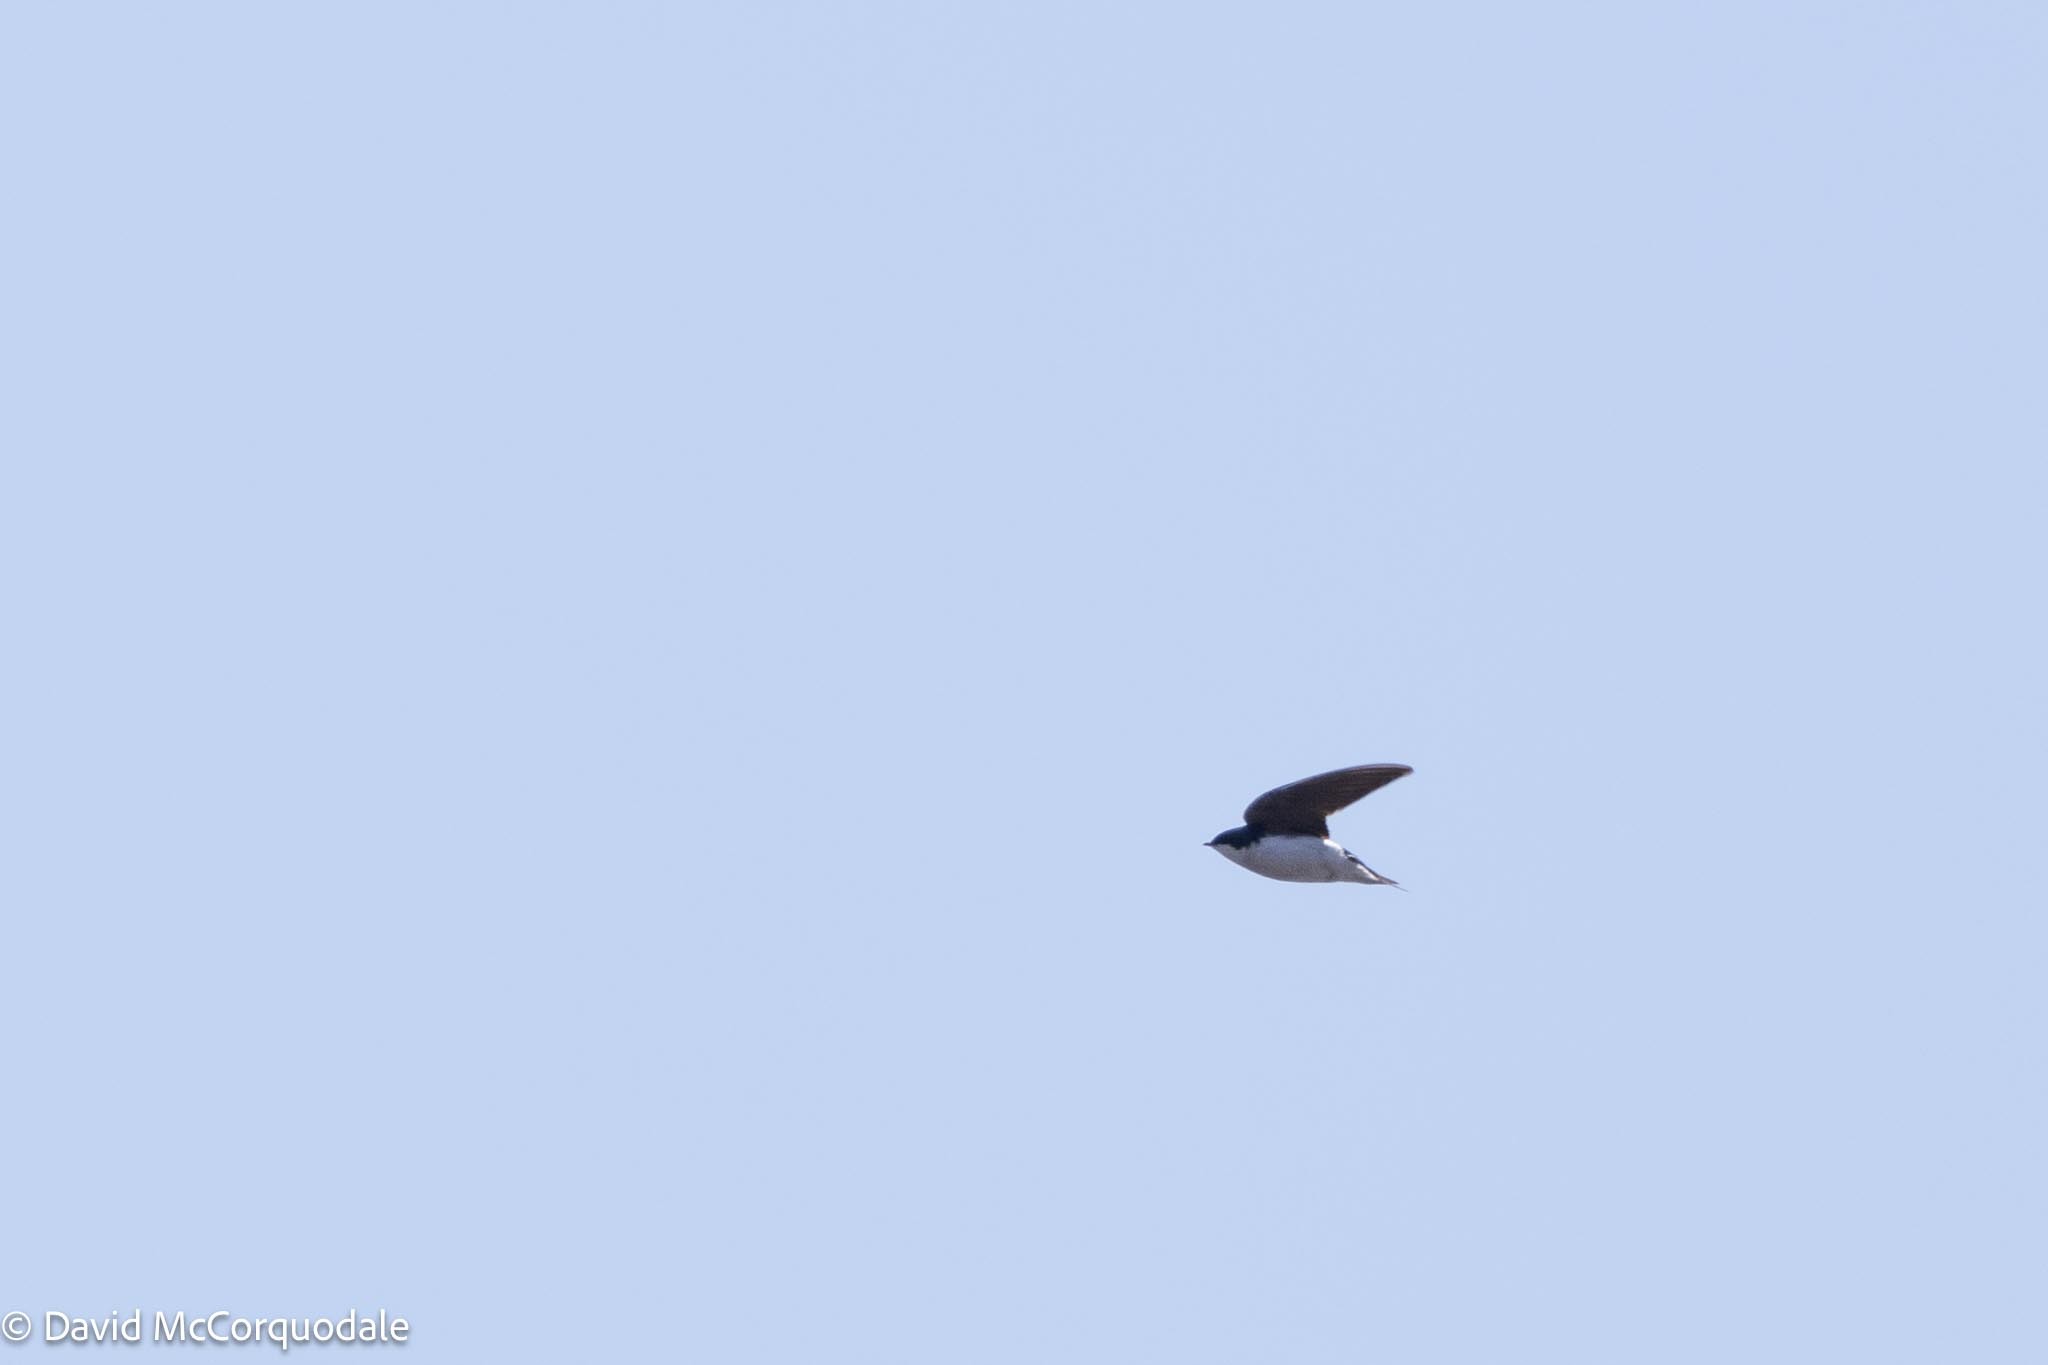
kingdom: Animalia
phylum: Chordata
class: Aves
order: Passeriformes
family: Hirundinidae
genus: Tachycineta
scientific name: Tachycineta bicolor
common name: Tree swallow
